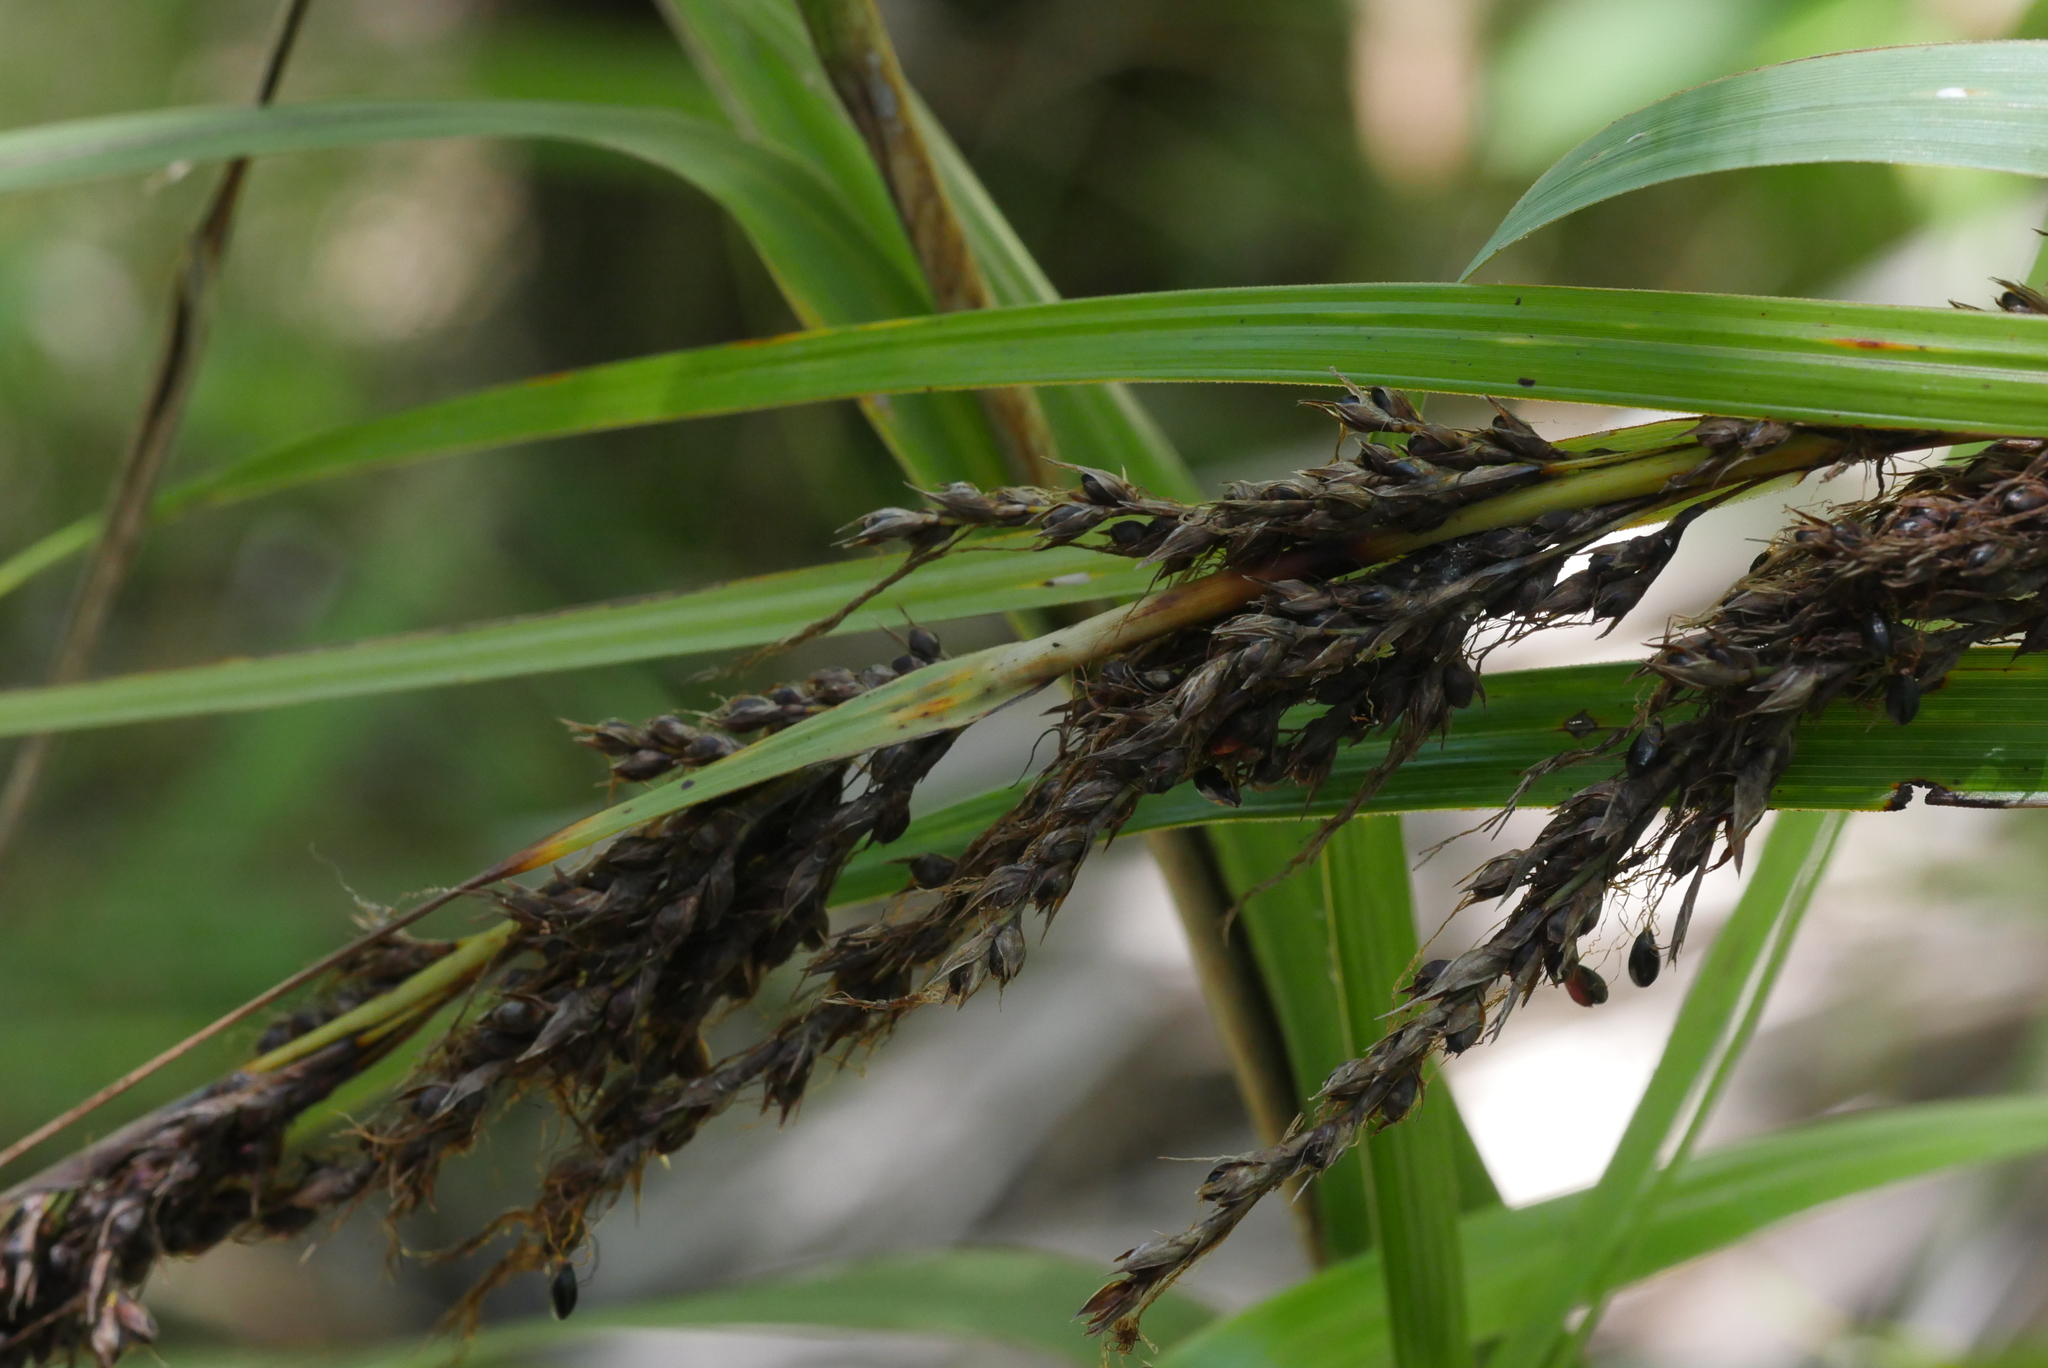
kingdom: Plantae
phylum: Tracheophyta
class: Liliopsida
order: Poales
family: Cyperaceae
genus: Gahnia
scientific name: Gahnia lacera
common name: Sawsedge
